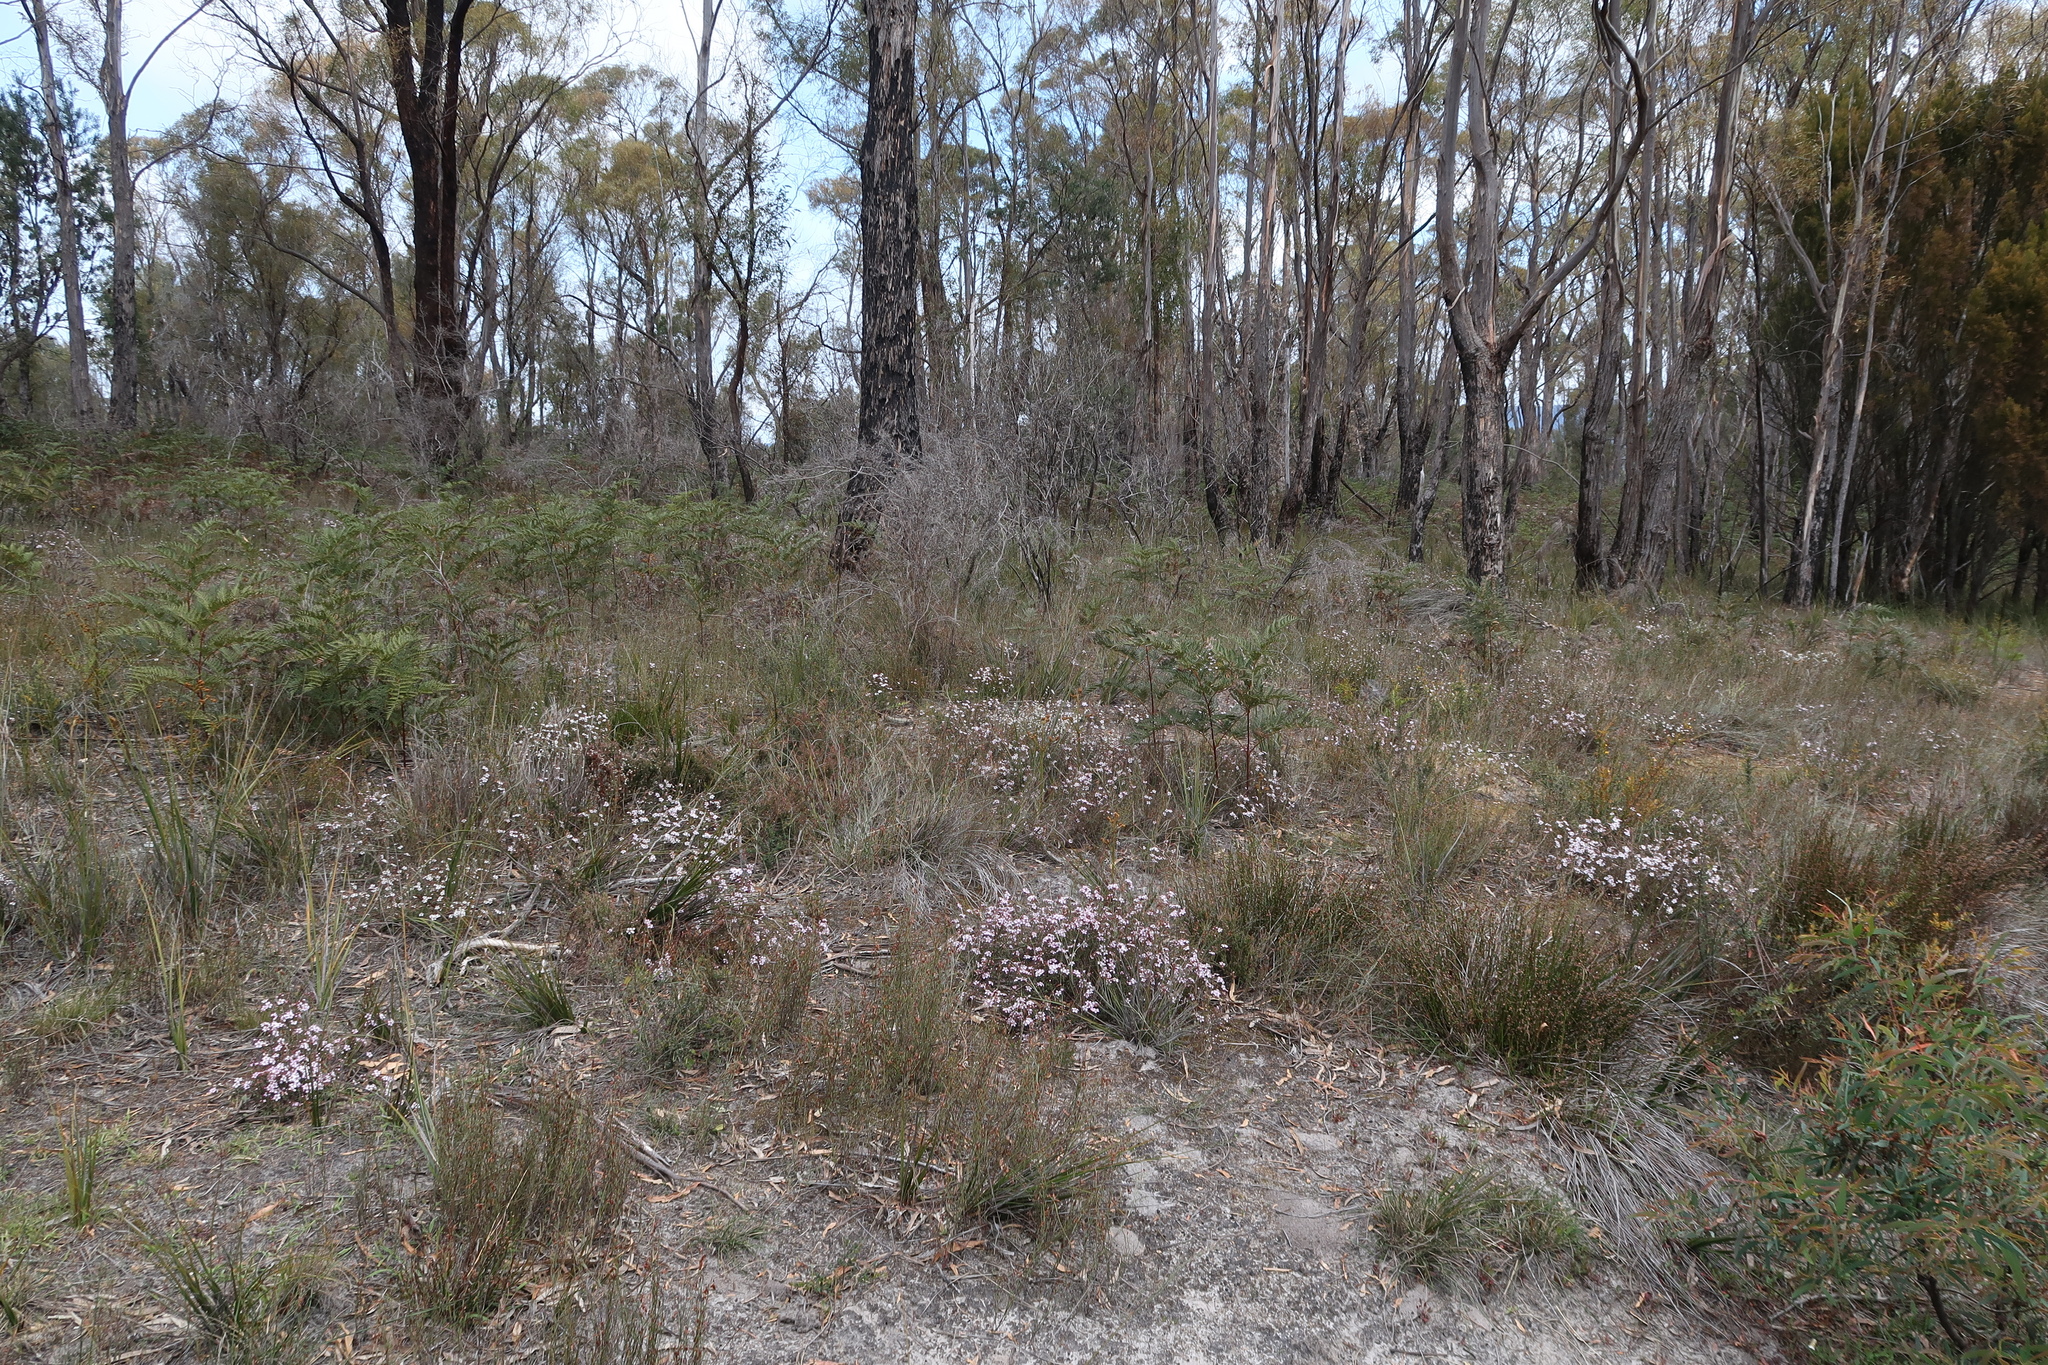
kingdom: Plantae
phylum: Tracheophyta
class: Magnoliopsida
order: Myrtales
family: Myrtaceae
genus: Euryomyrtus
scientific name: Euryomyrtus ramosissima
